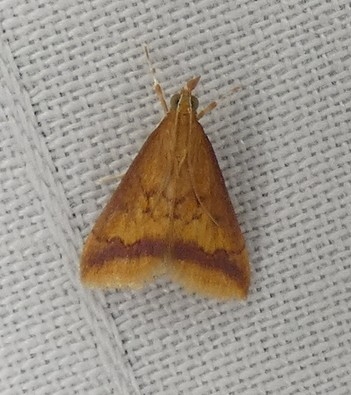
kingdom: Animalia
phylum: Arthropoda
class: Insecta
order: Lepidoptera
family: Crambidae
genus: Hyalorista
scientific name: Hyalorista taeniolalis
